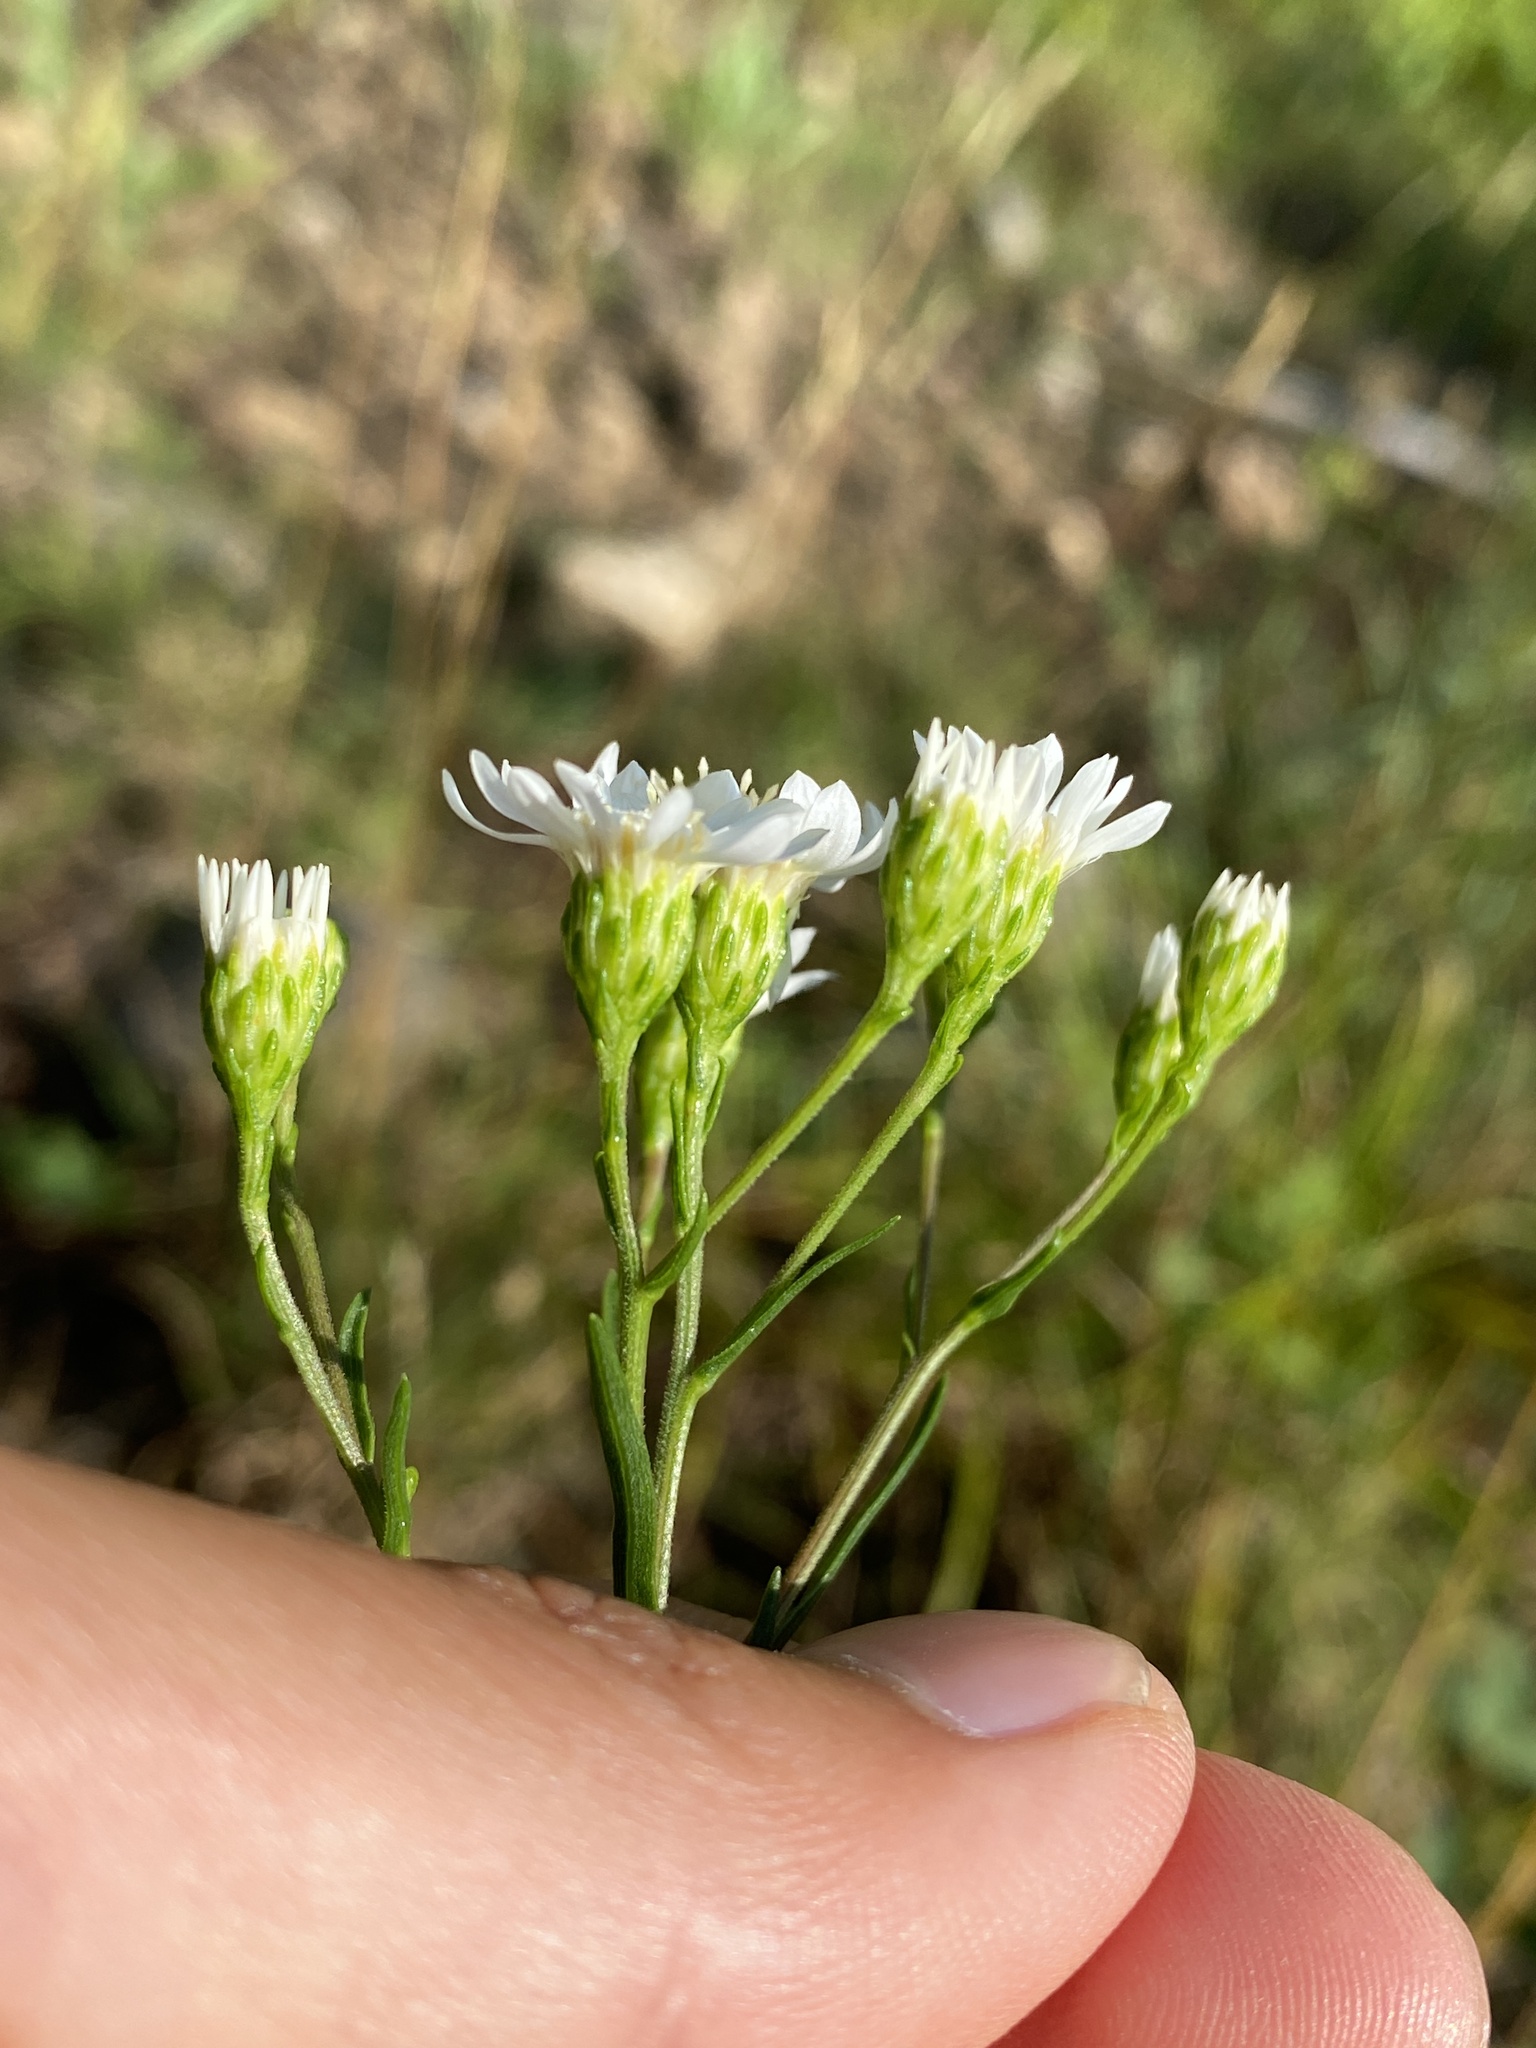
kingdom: Plantae
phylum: Tracheophyta
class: Magnoliopsida
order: Asterales
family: Asteraceae
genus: Solidago
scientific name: Solidago ptarmicoides
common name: White flat-top goldenrod
